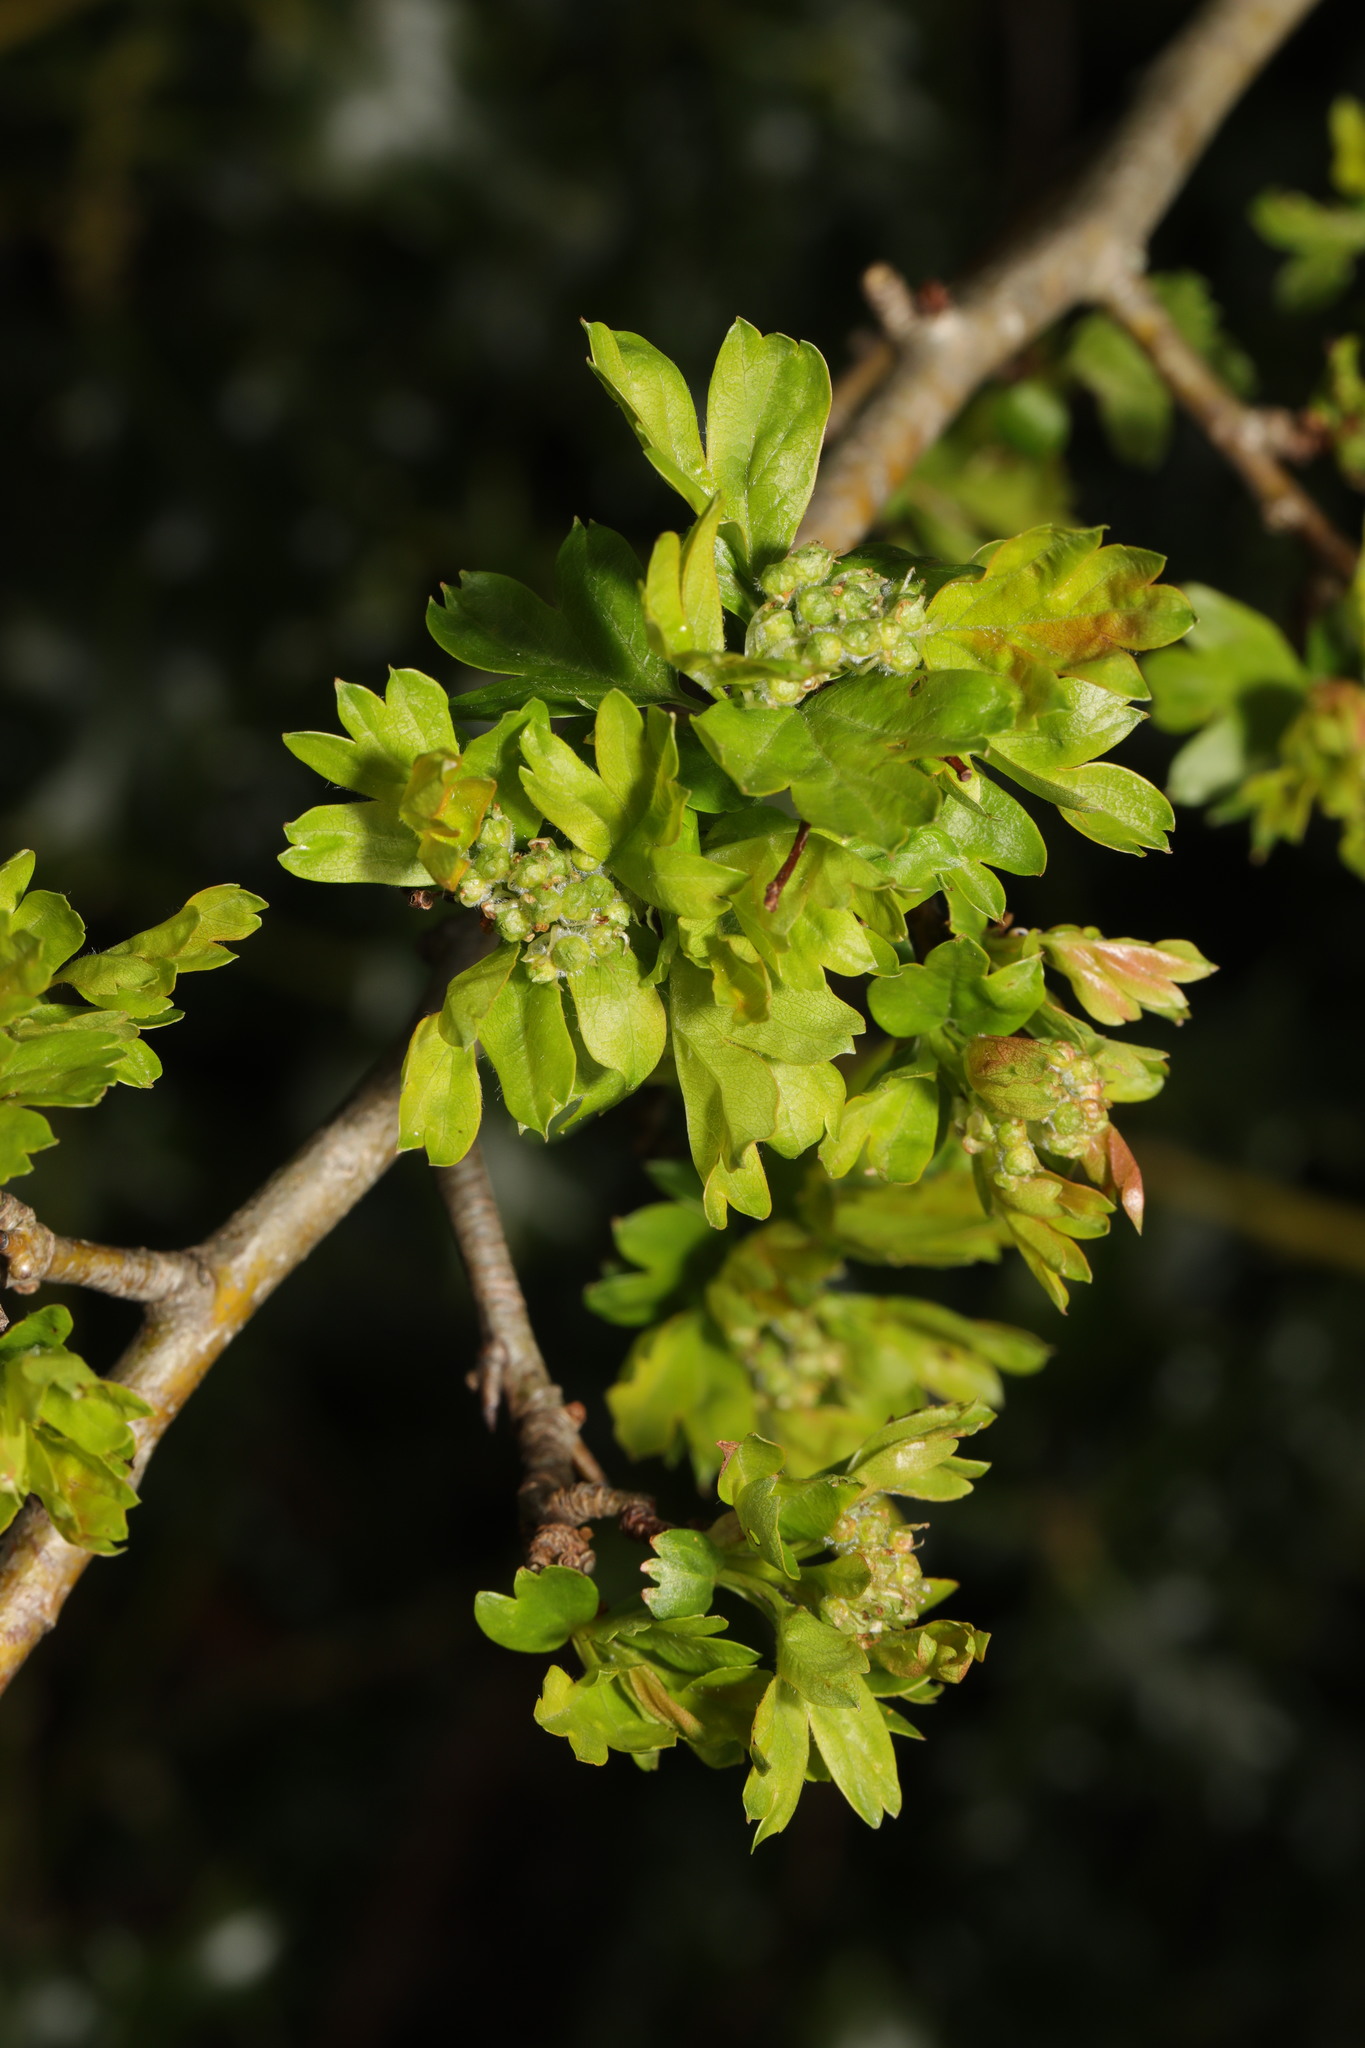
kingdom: Plantae
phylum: Tracheophyta
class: Magnoliopsida
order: Rosales
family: Rosaceae
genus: Crataegus
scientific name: Crataegus monogyna
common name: Hawthorn
